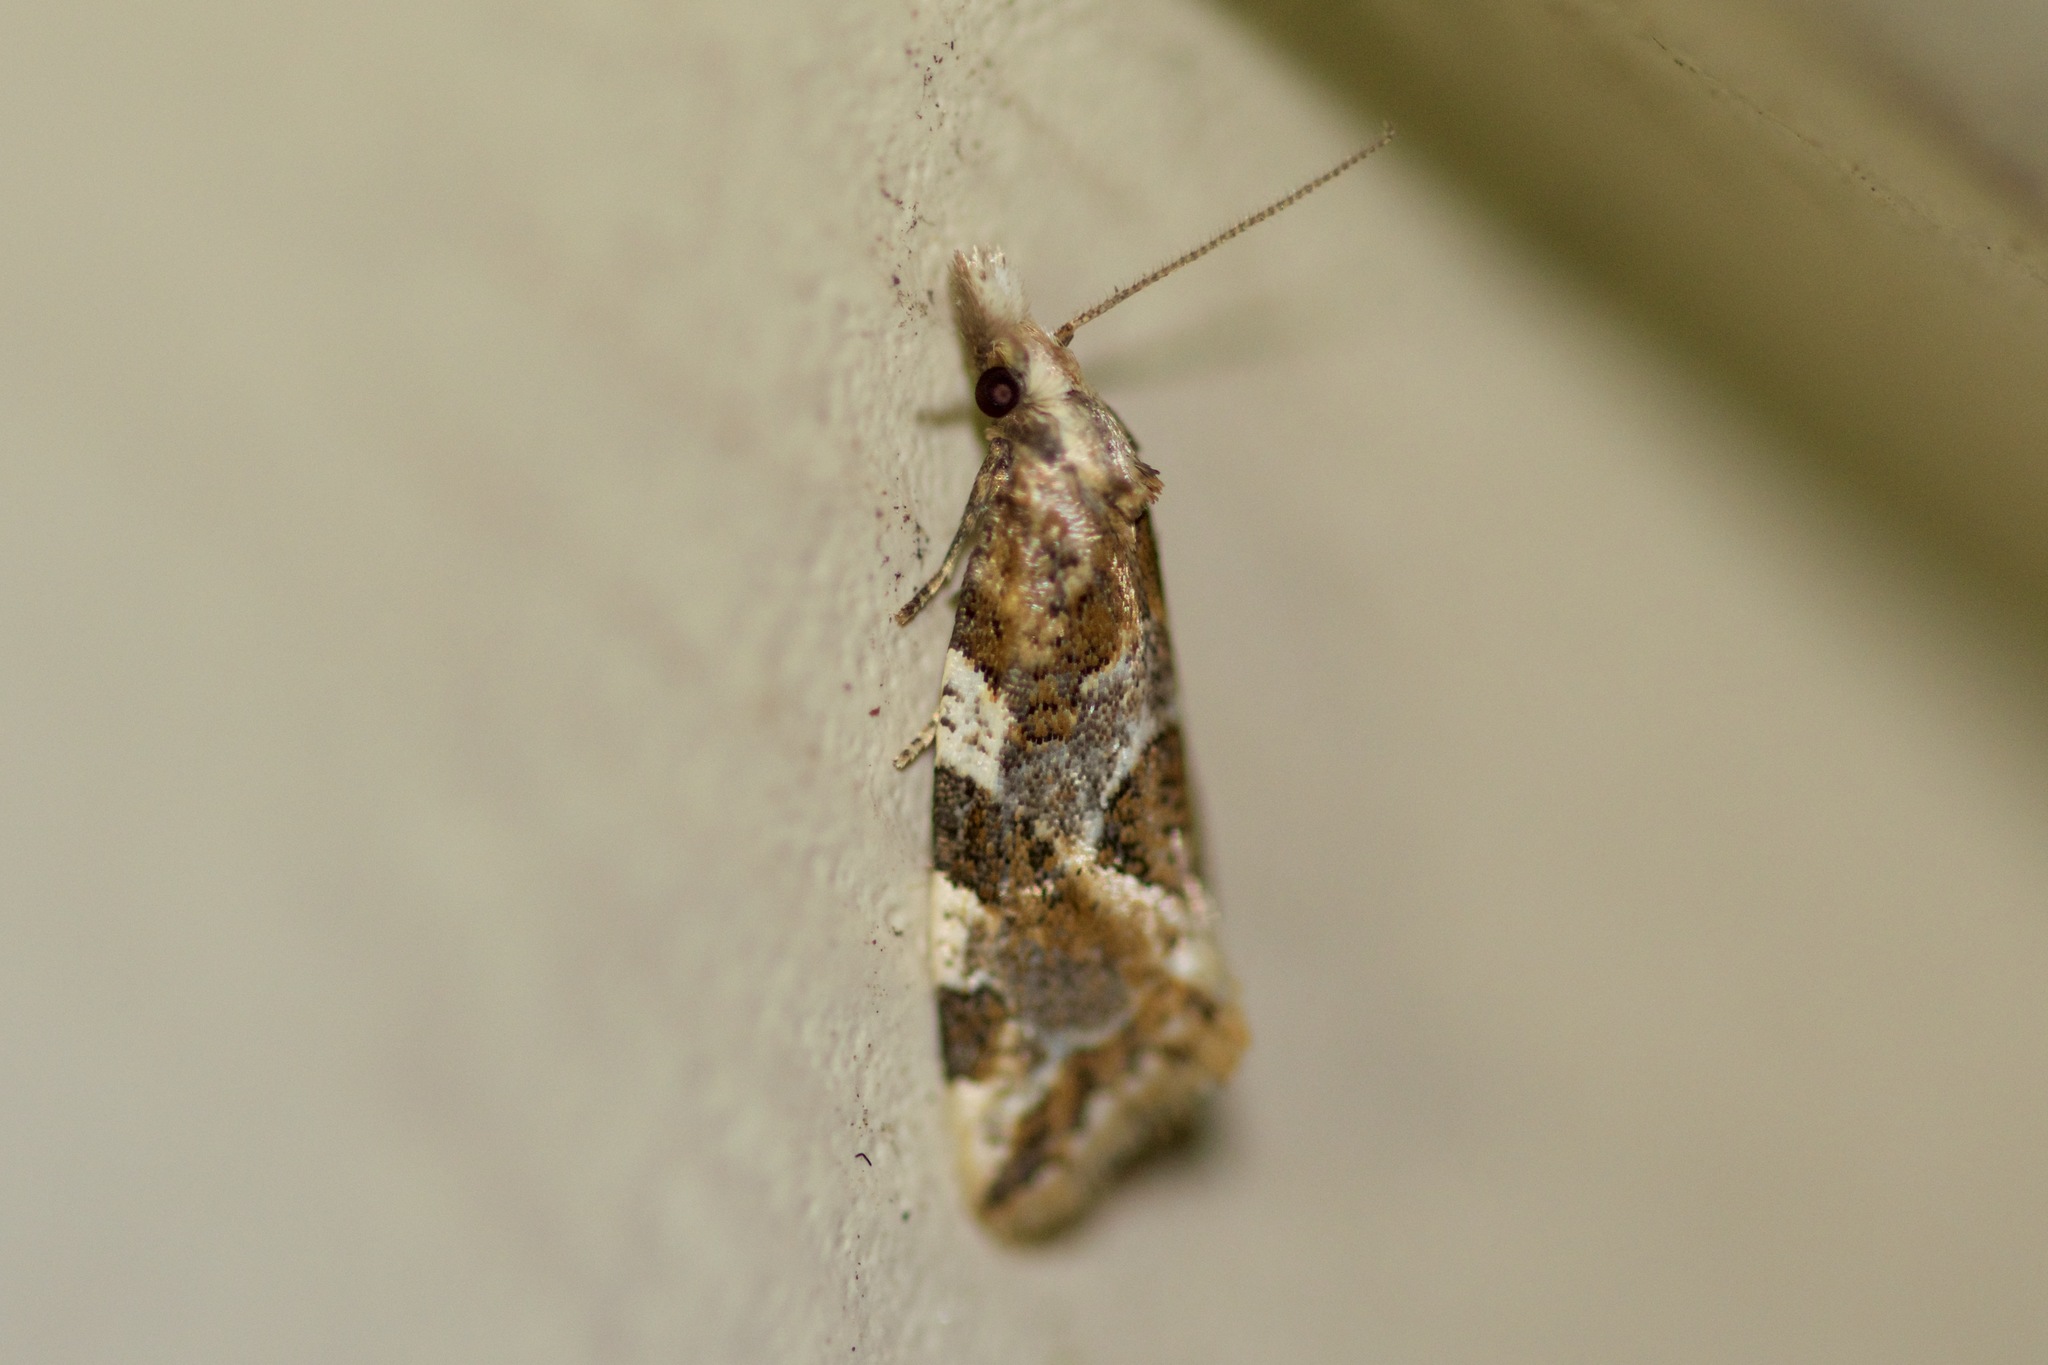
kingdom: Animalia
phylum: Arthropoda
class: Insecta
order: Lepidoptera
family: Tortricidae
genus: Aethes
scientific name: Aethes sexdentata
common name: Six-toothed aethes
